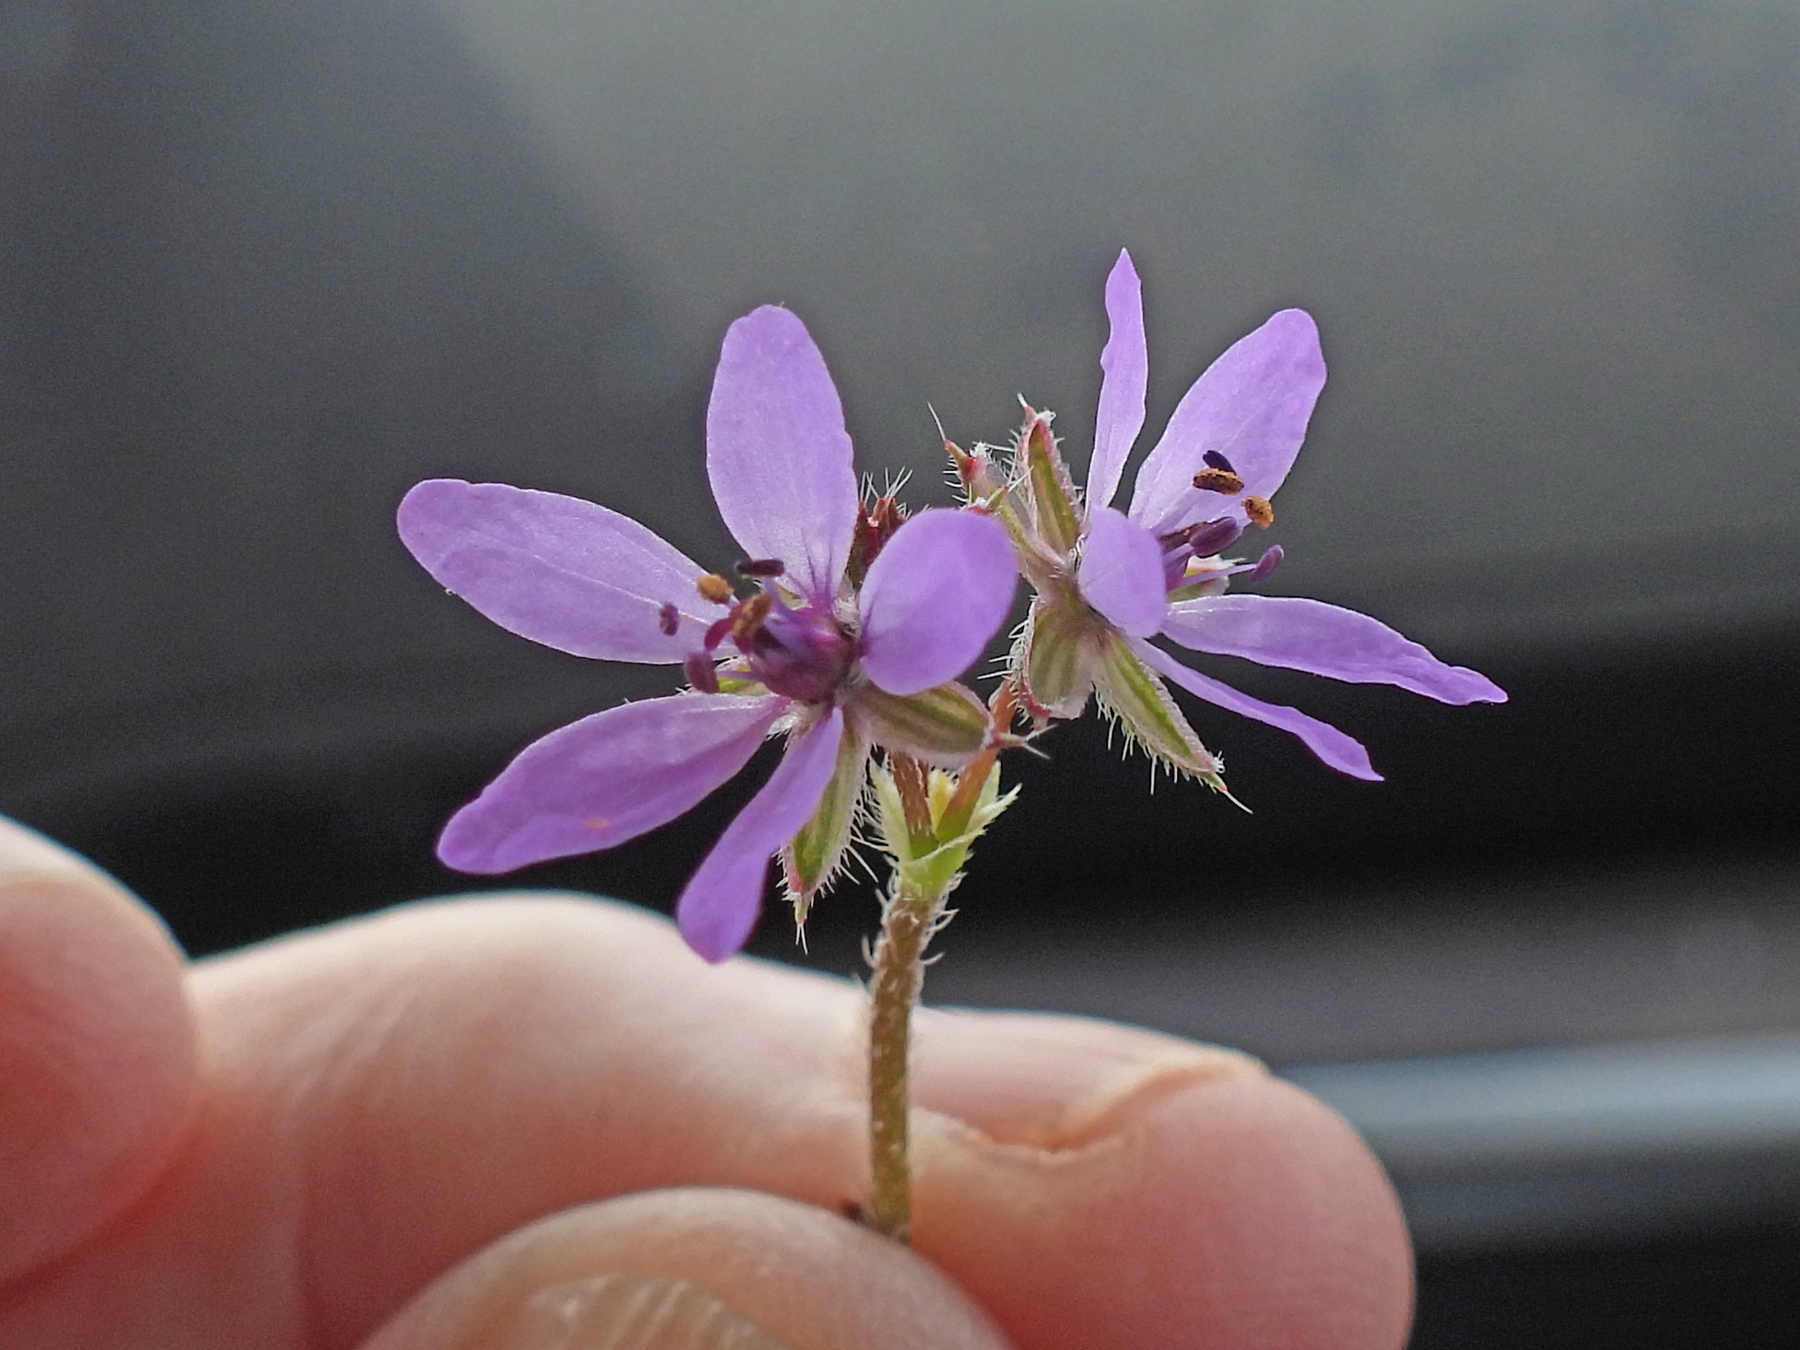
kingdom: Plantae
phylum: Tracheophyta
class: Magnoliopsida
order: Geraniales
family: Geraniaceae
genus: Erodium
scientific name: Erodium cicutarium
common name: Common stork's-bill
